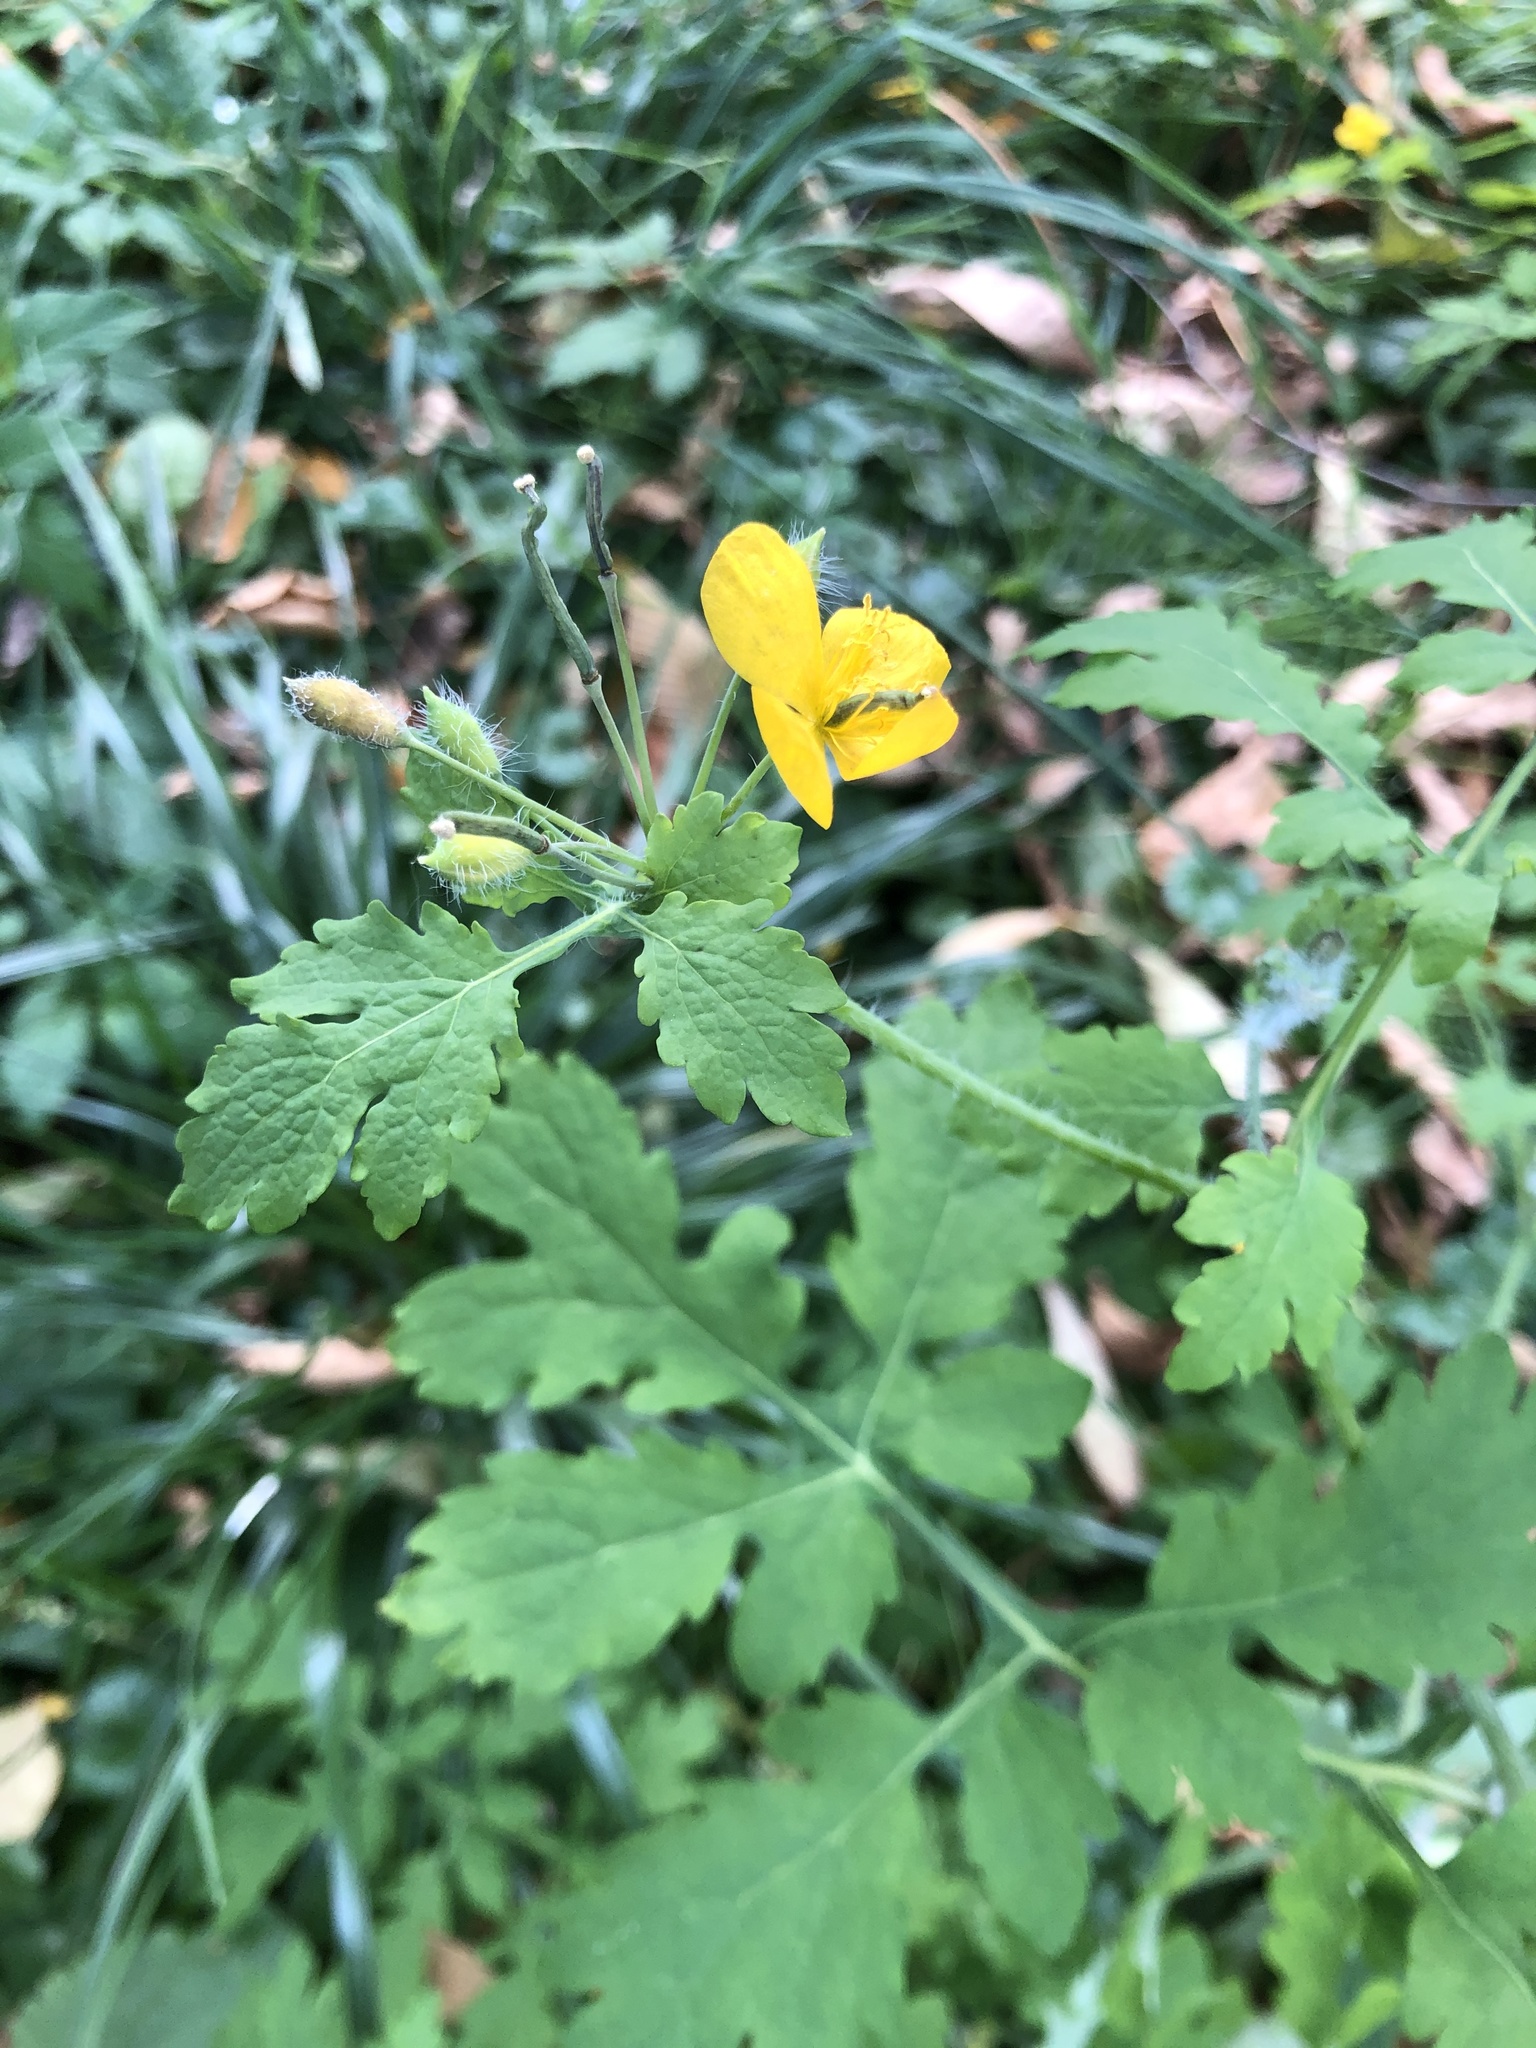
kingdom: Plantae
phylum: Tracheophyta
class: Magnoliopsida
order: Ranunculales
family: Papaveraceae
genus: Chelidonium
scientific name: Chelidonium majus
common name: Greater celandine
